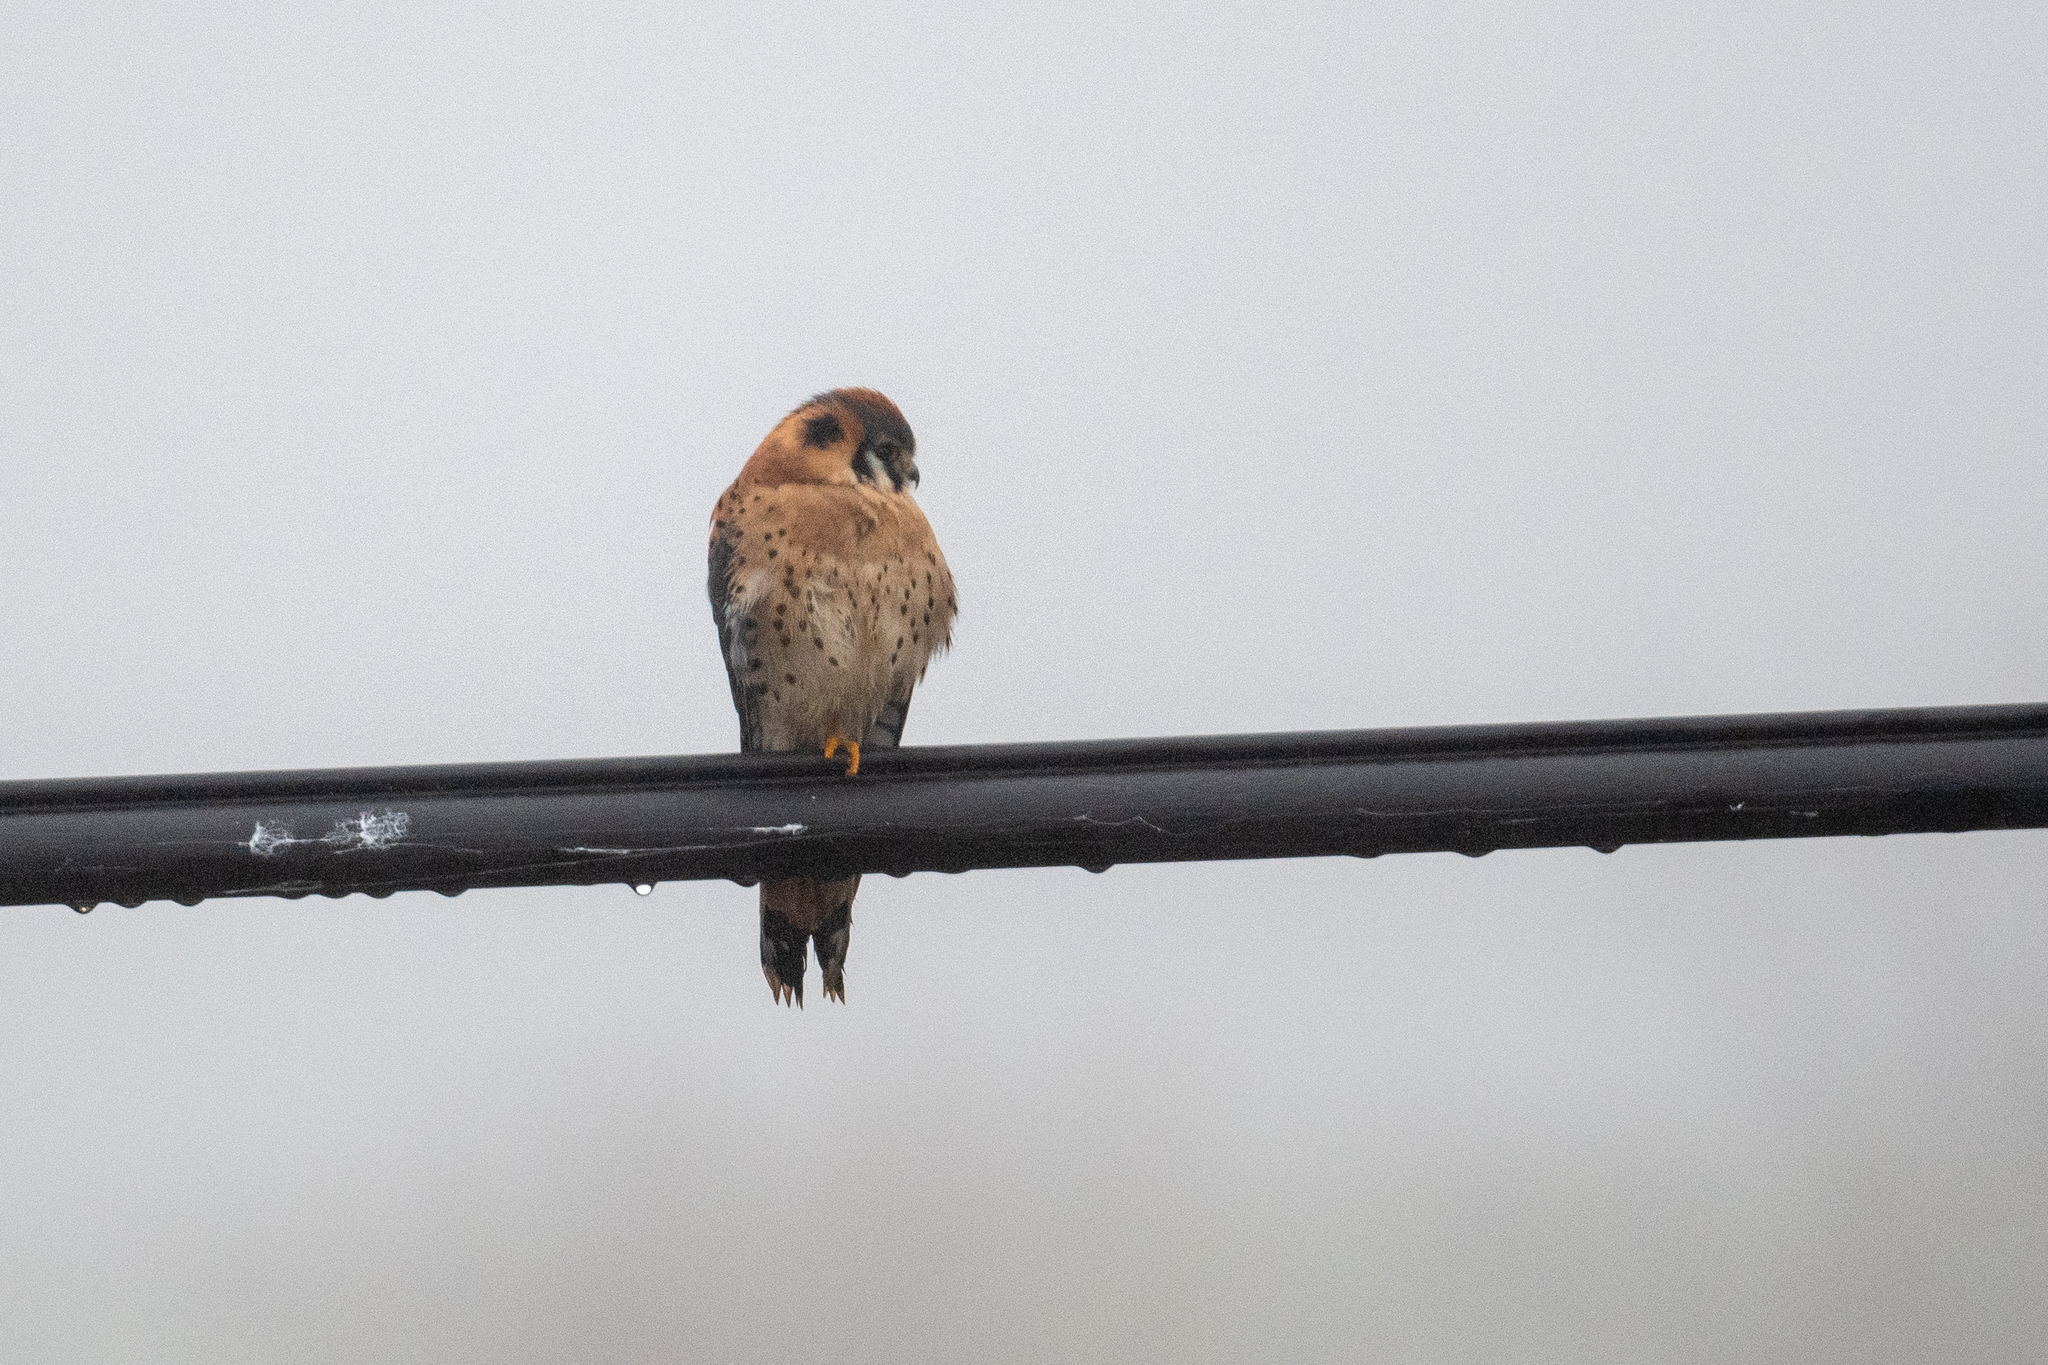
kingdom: Animalia
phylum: Chordata
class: Aves
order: Falconiformes
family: Falconidae
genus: Falco
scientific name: Falco sparverius
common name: American kestrel
